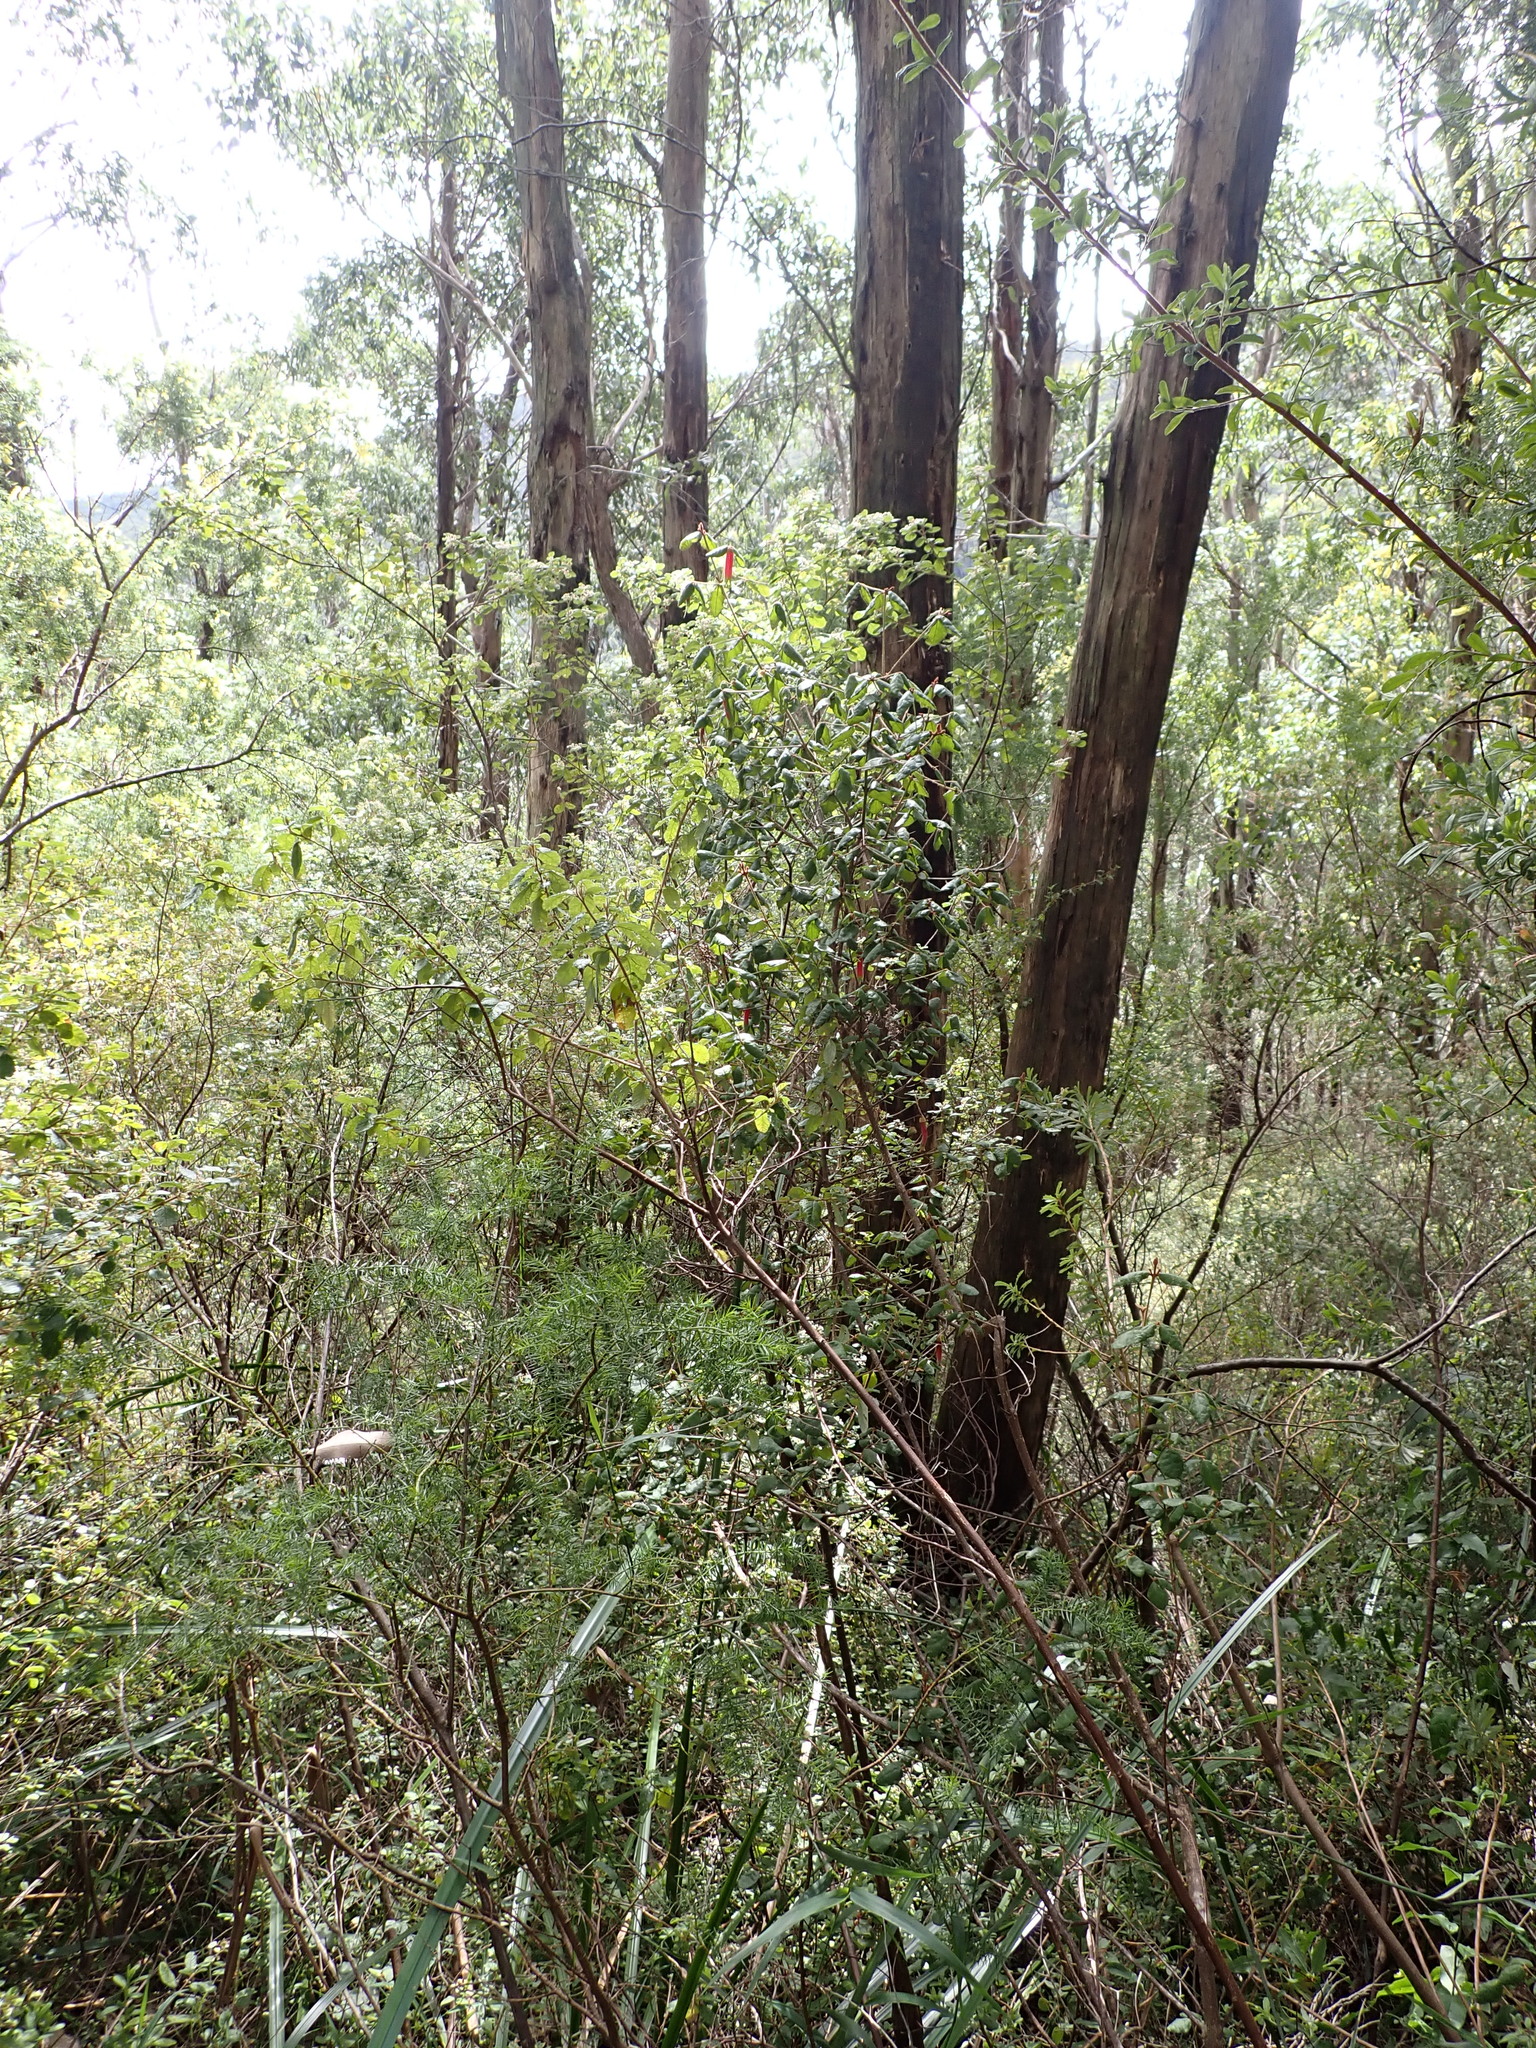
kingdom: Plantae
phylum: Tracheophyta
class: Magnoliopsida
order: Sapindales
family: Rutaceae
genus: Correa
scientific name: Correa reflexa
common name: Common correa
